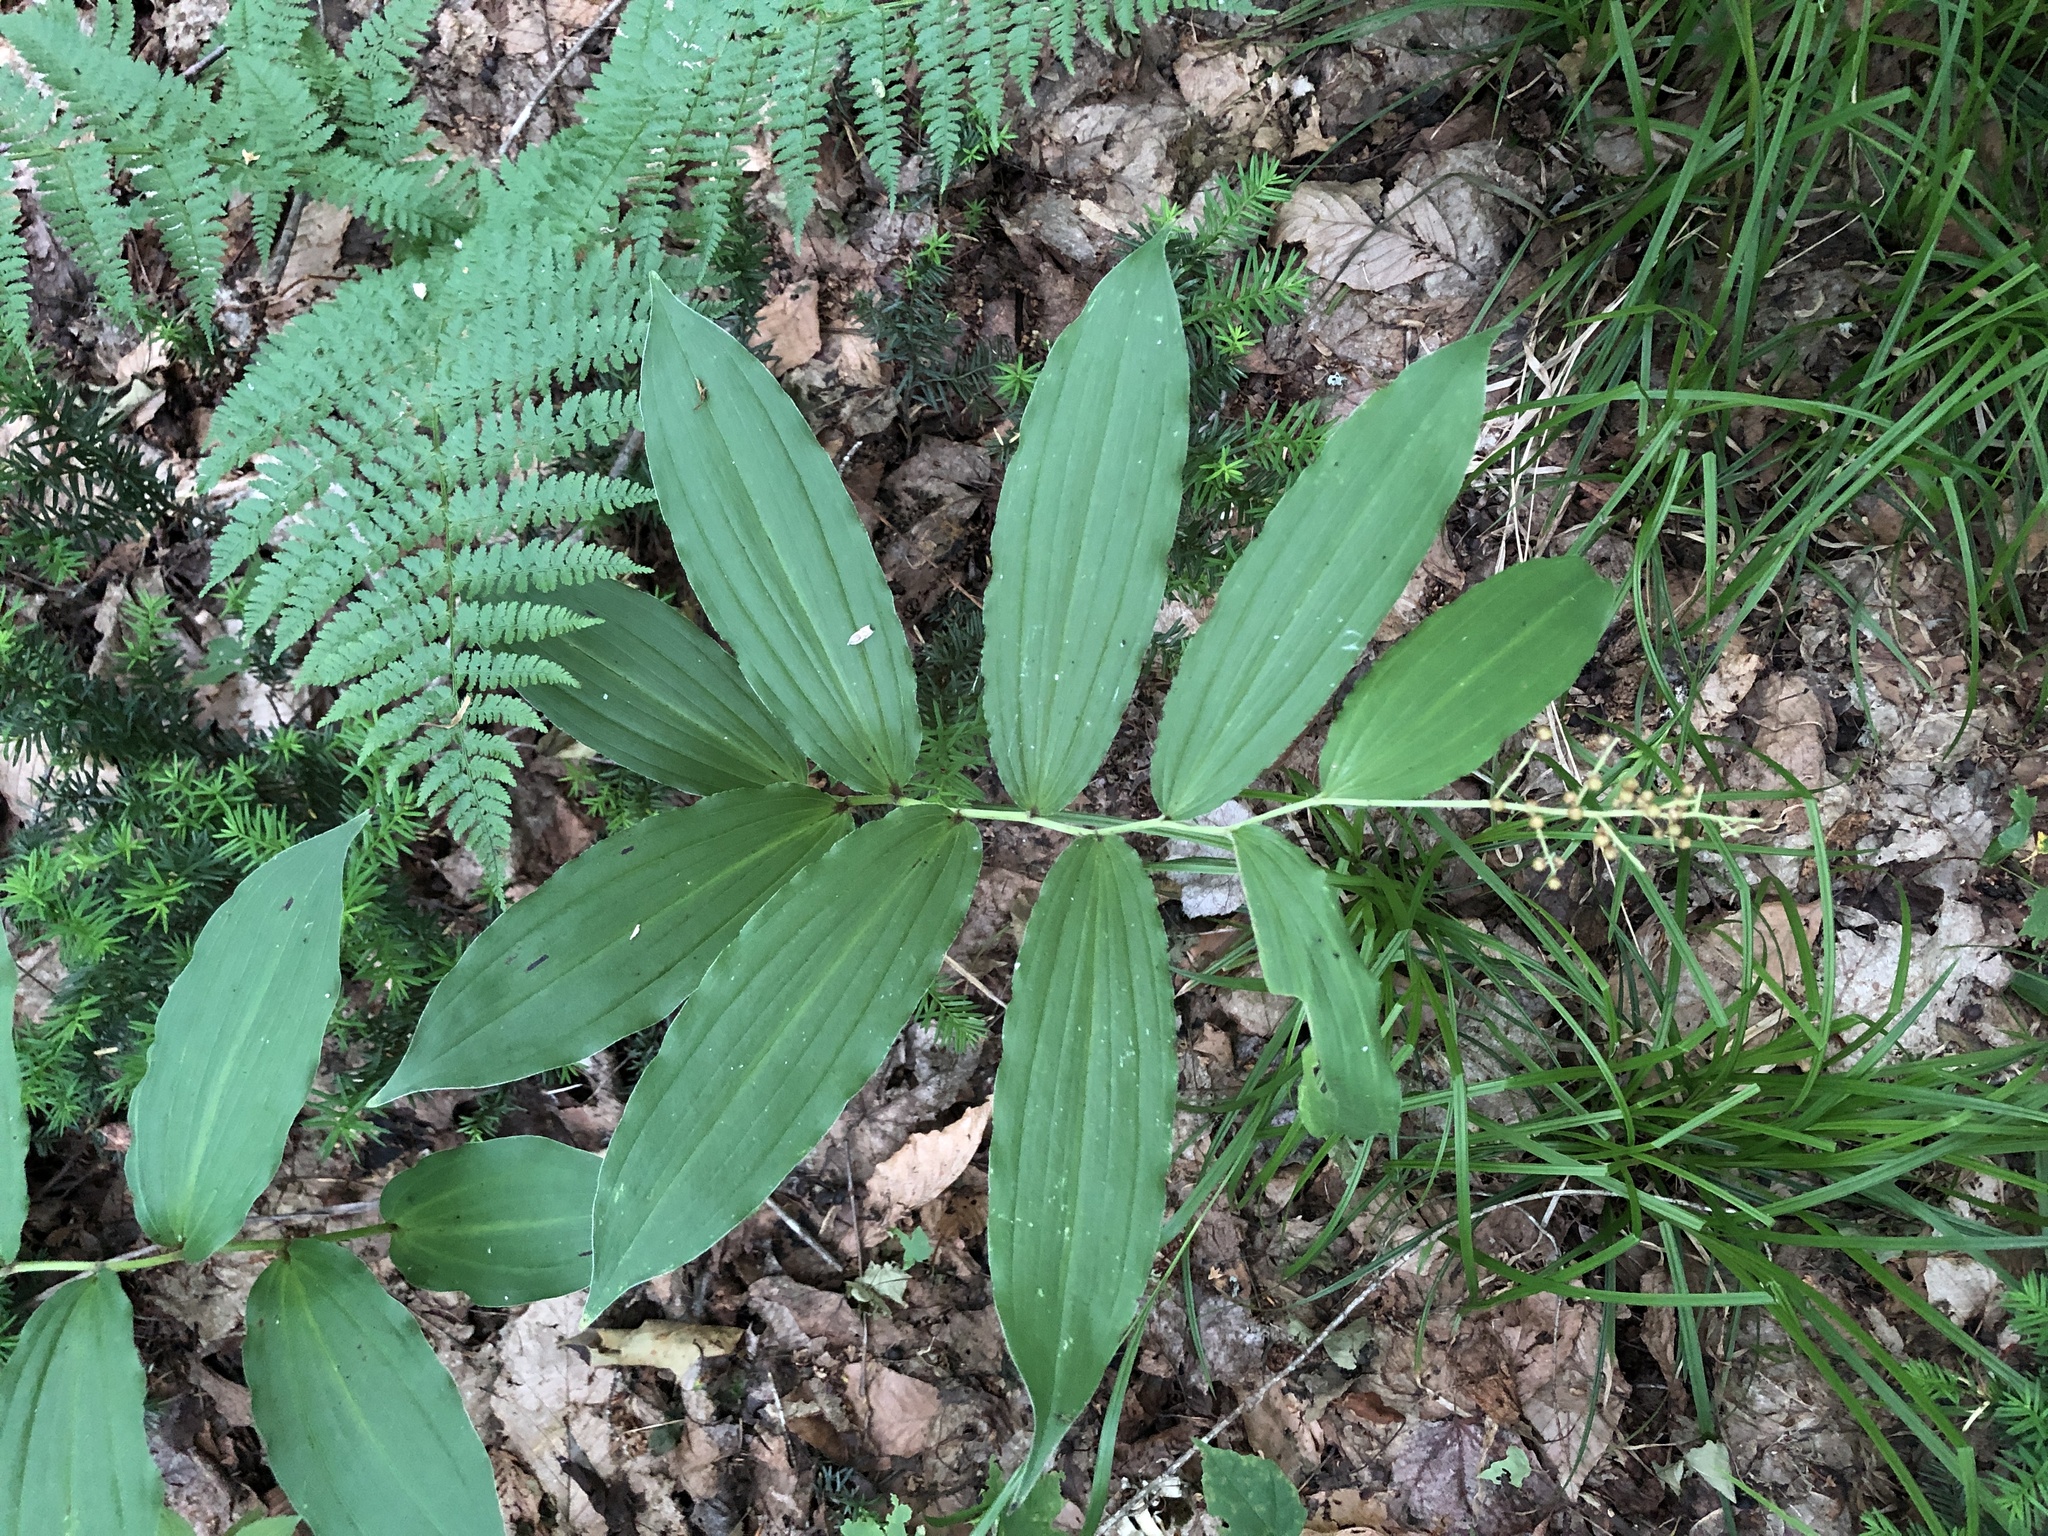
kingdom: Plantae
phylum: Tracheophyta
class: Liliopsida
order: Asparagales
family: Asparagaceae
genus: Maianthemum
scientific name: Maianthemum racemosum
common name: False spikenard
